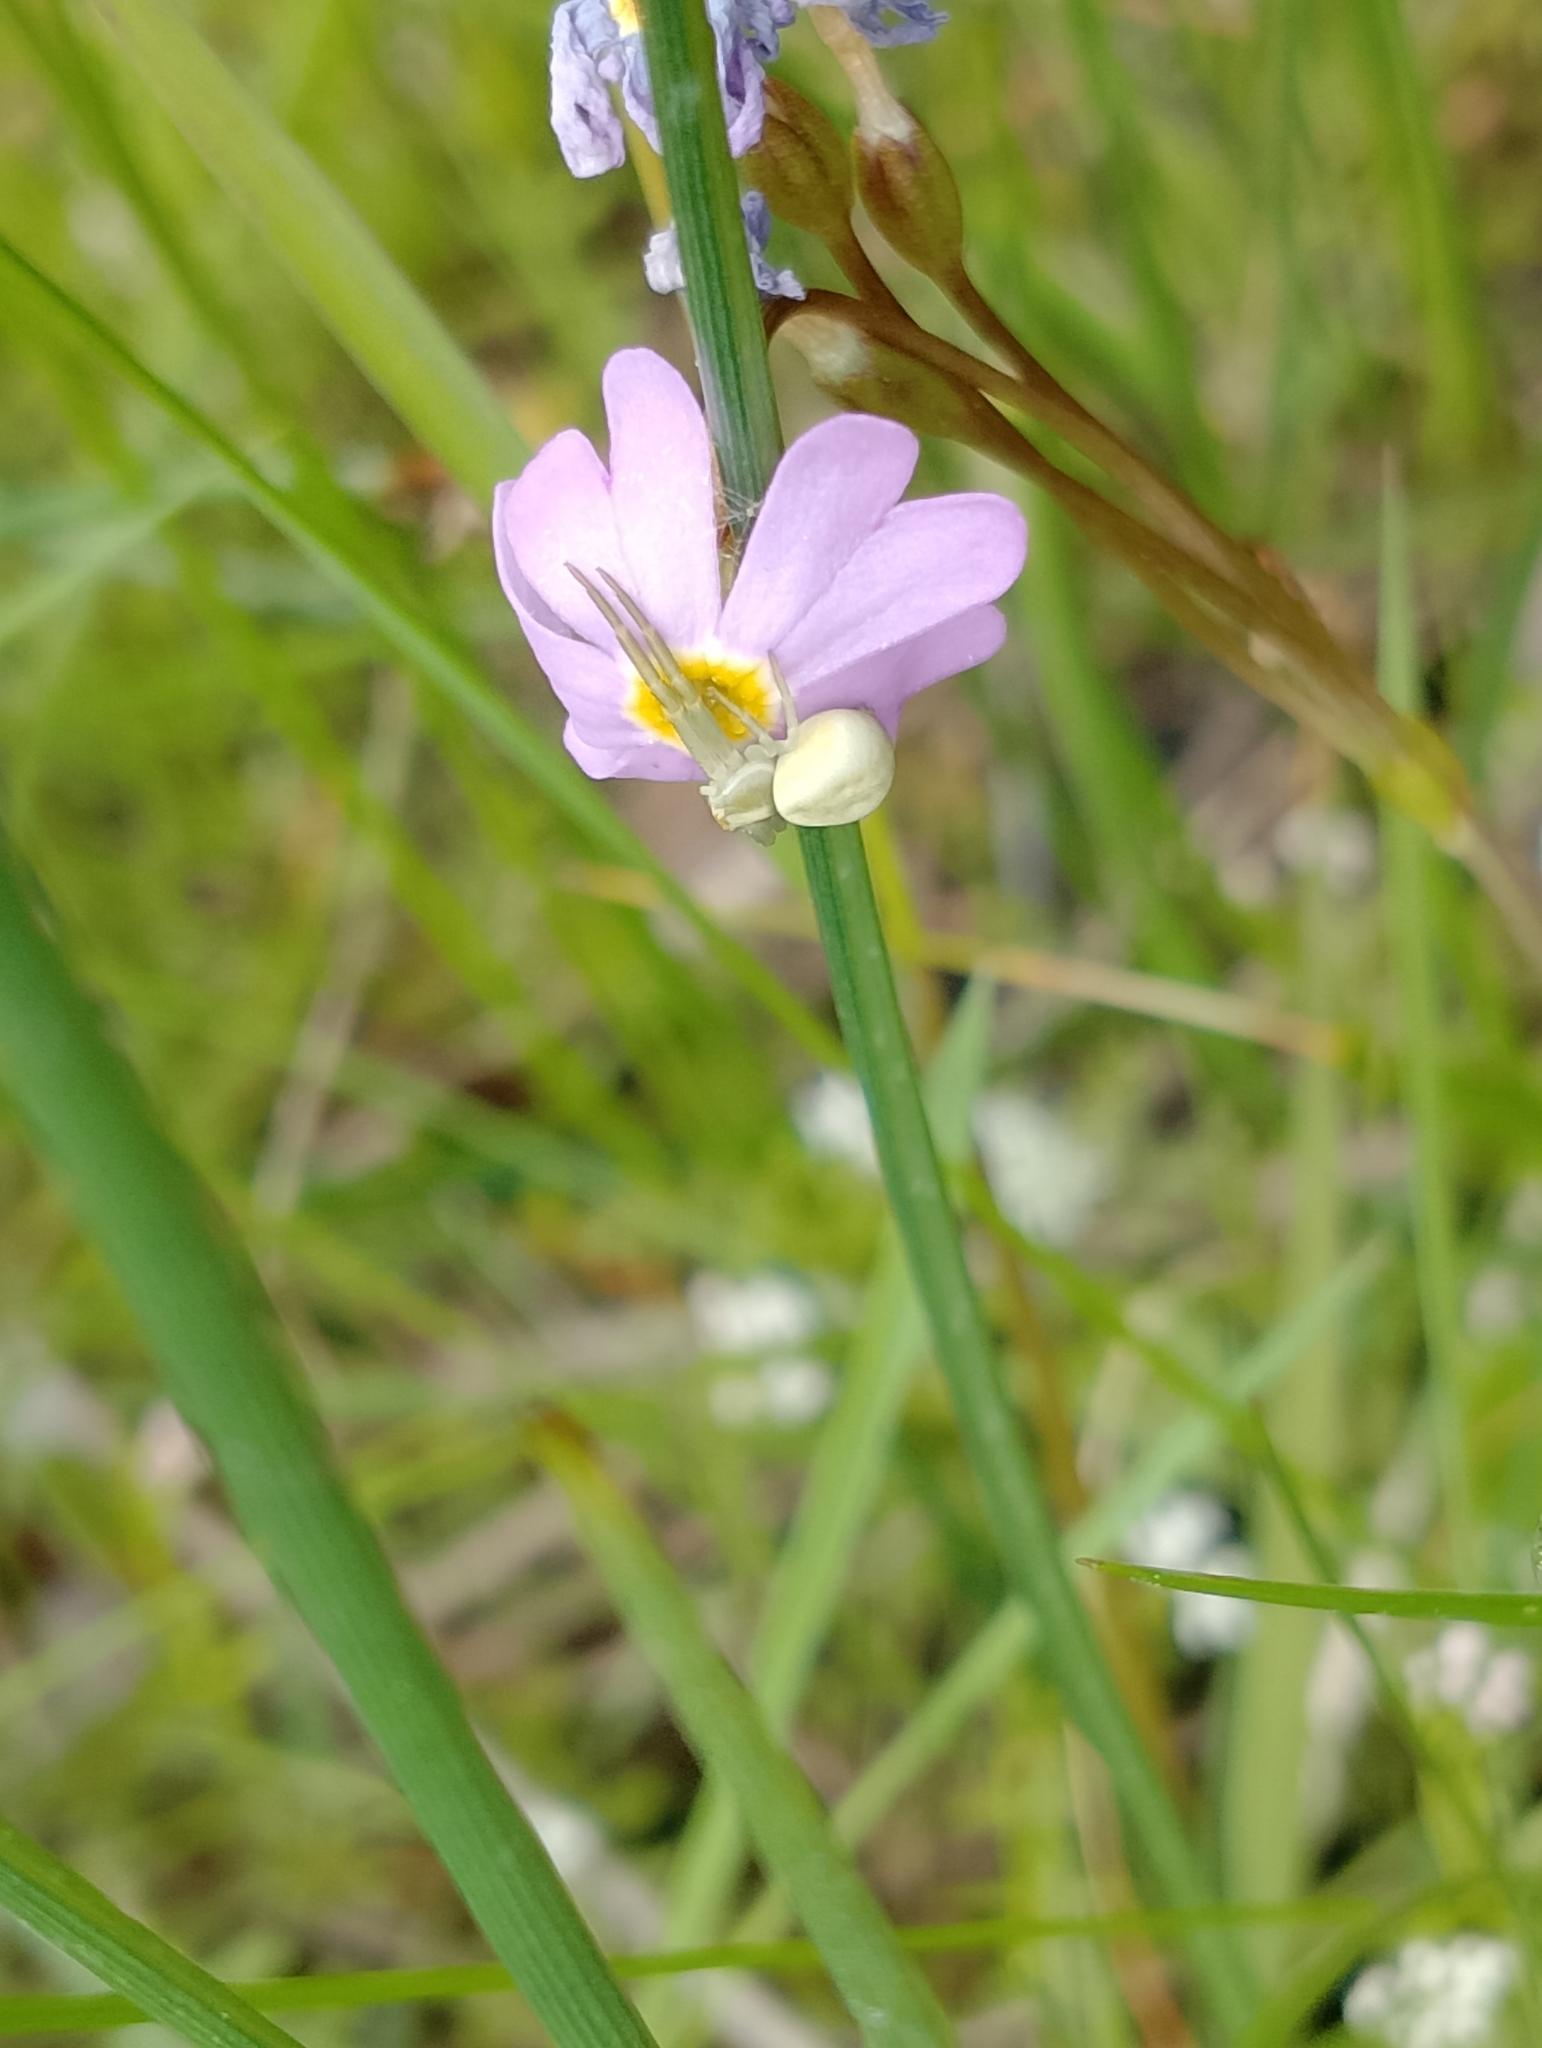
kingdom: Animalia
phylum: Arthropoda
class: Arachnida
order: Araneae
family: Thomisidae
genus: Misumena
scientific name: Misumena vatia
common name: Goldenrod crab spider
